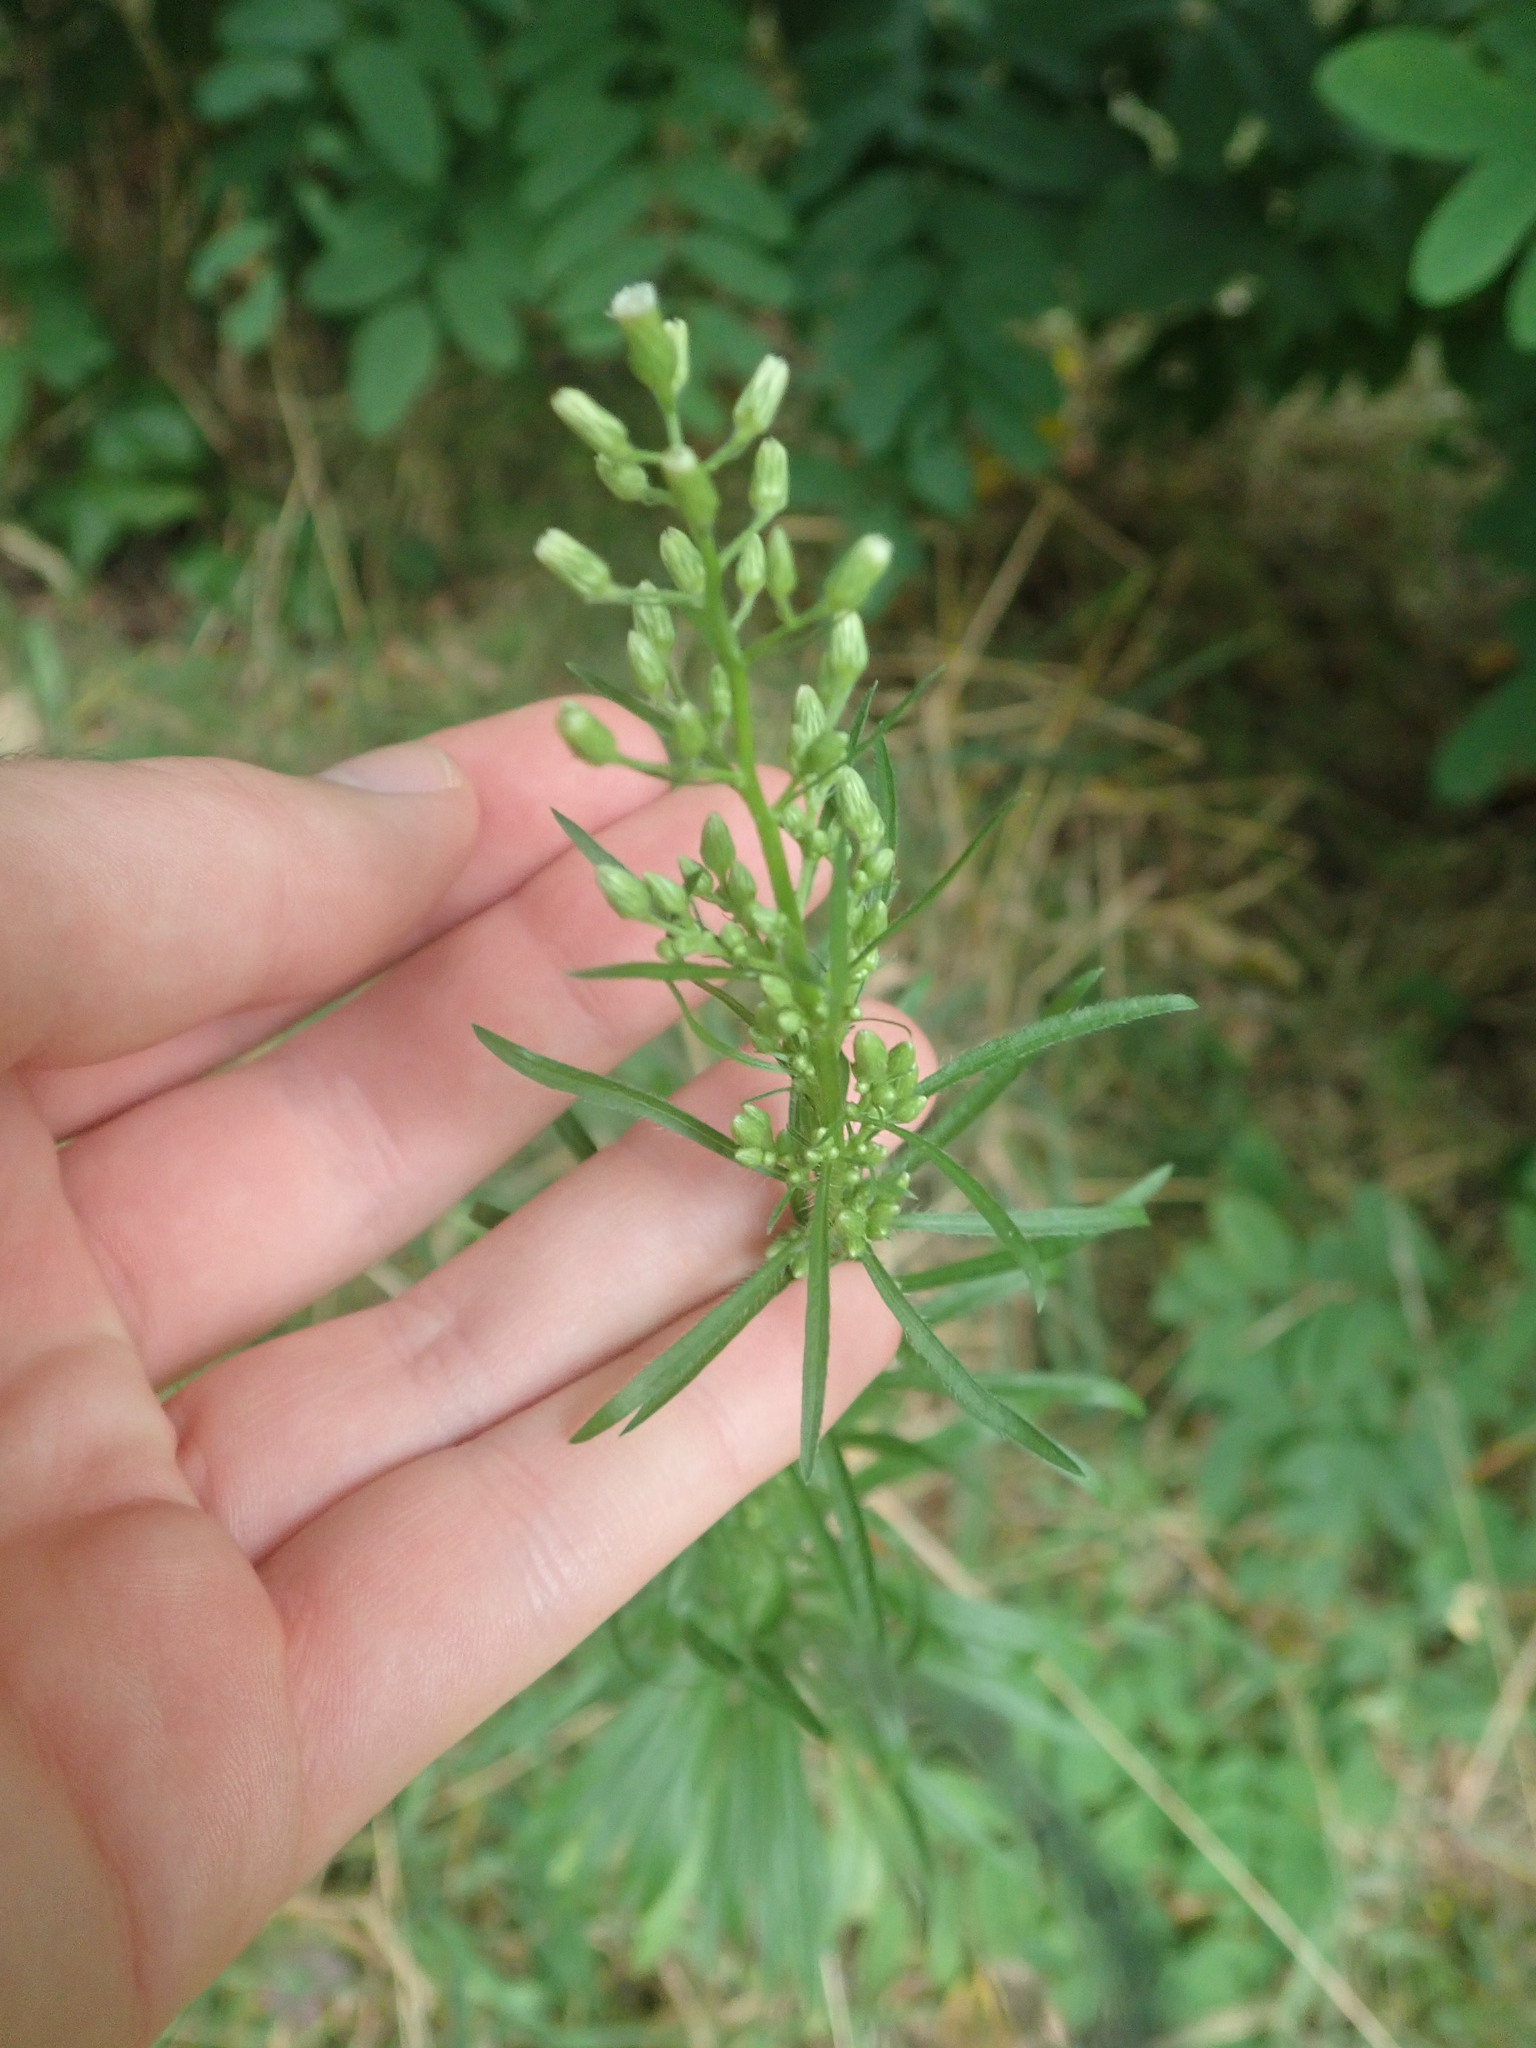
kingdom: Plantae
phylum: Tracheophyta
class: Magnoliopsida
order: Asterales
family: Asteraceae
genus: Erigeron
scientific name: Erigeron canadensis
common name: Canadian fleabane
